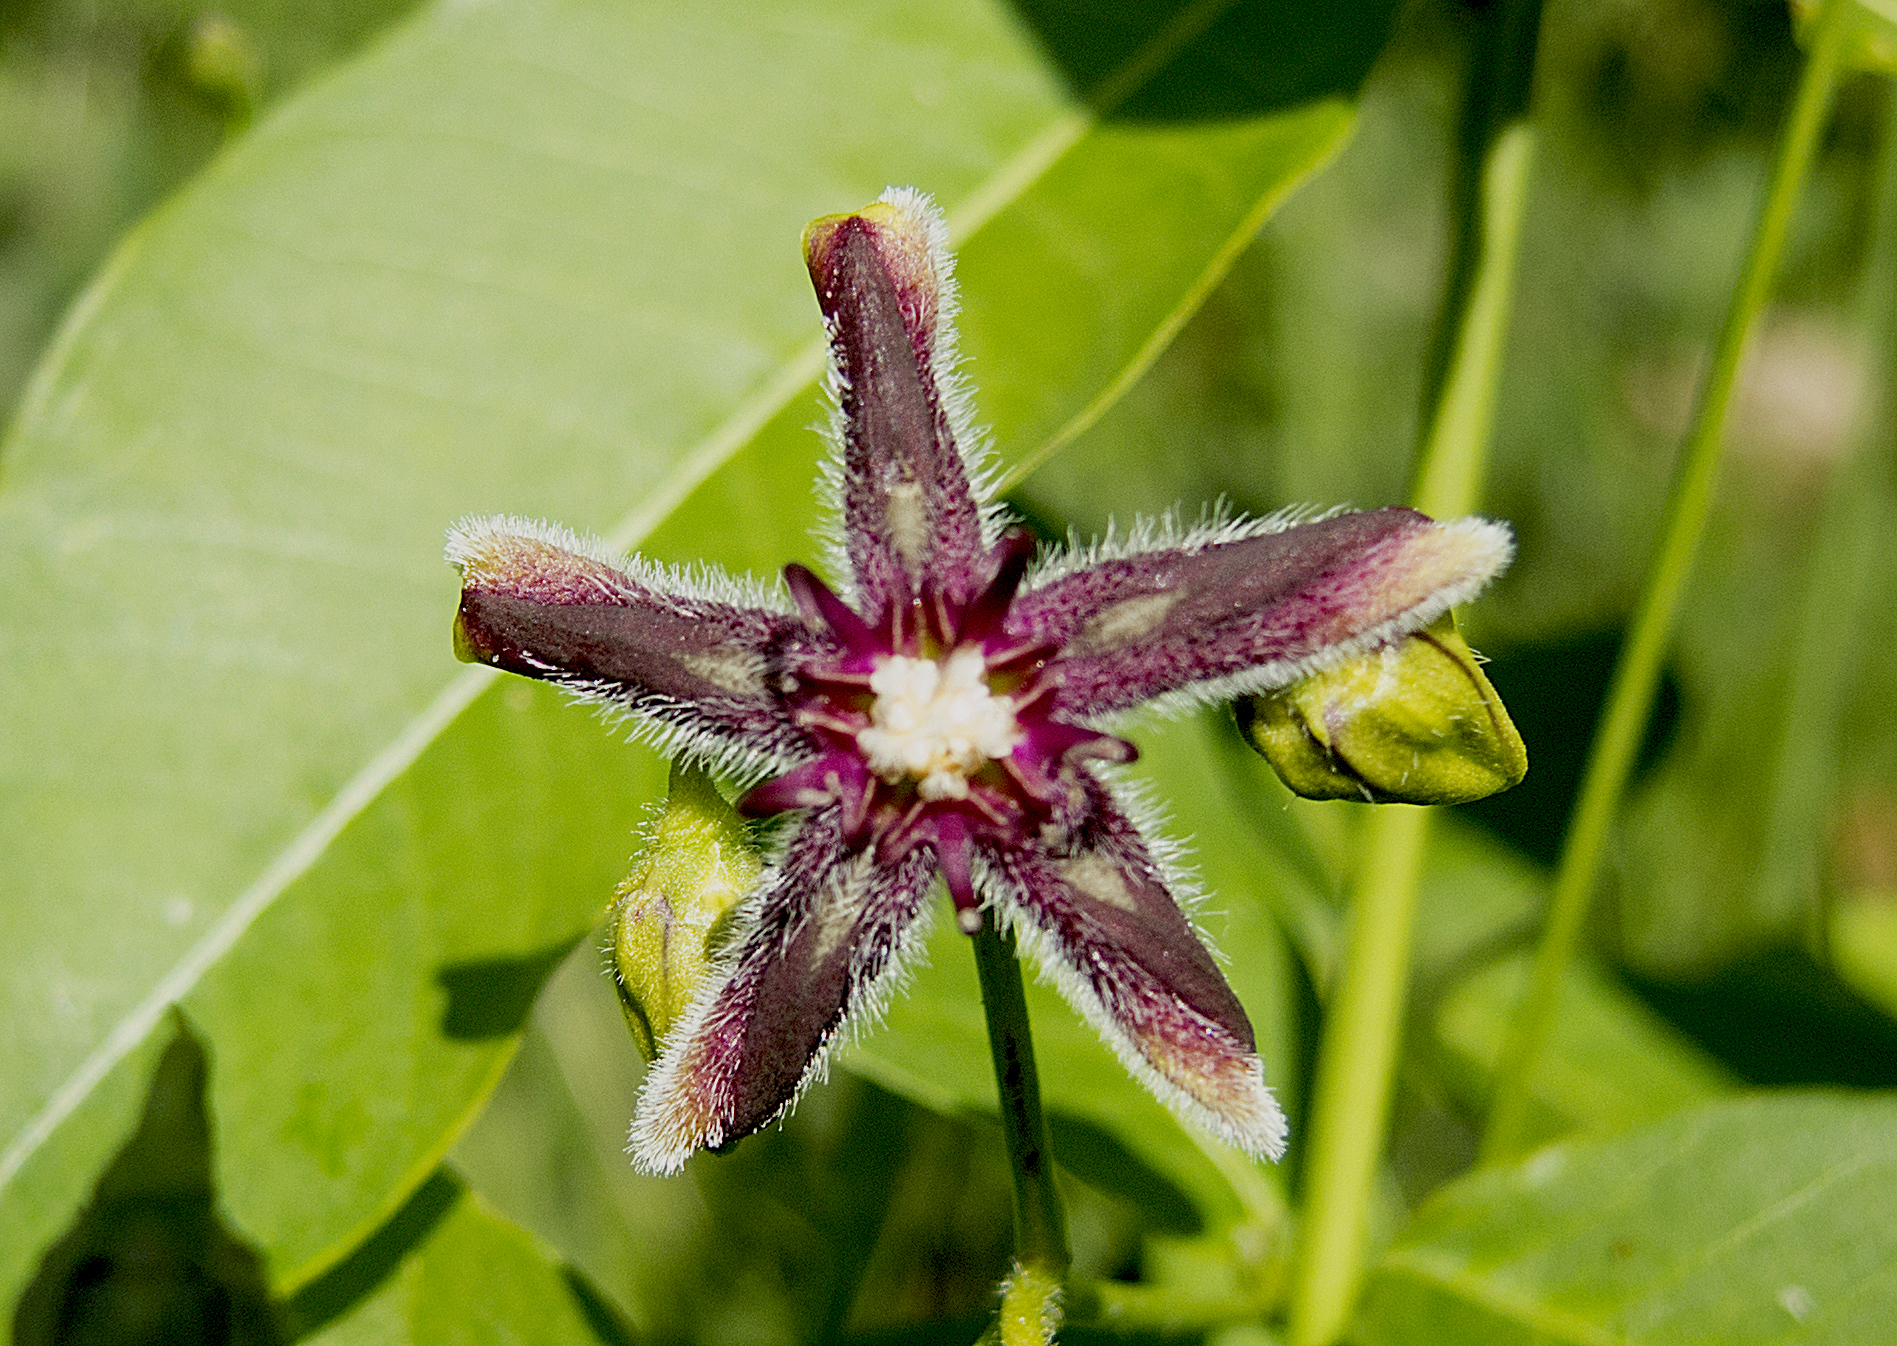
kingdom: Plantae
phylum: Tracheophyta
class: Magnoliopsida
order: Gentianales
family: Apocynaceae
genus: Periploca
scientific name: Periploca graeca
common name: Silkvine
